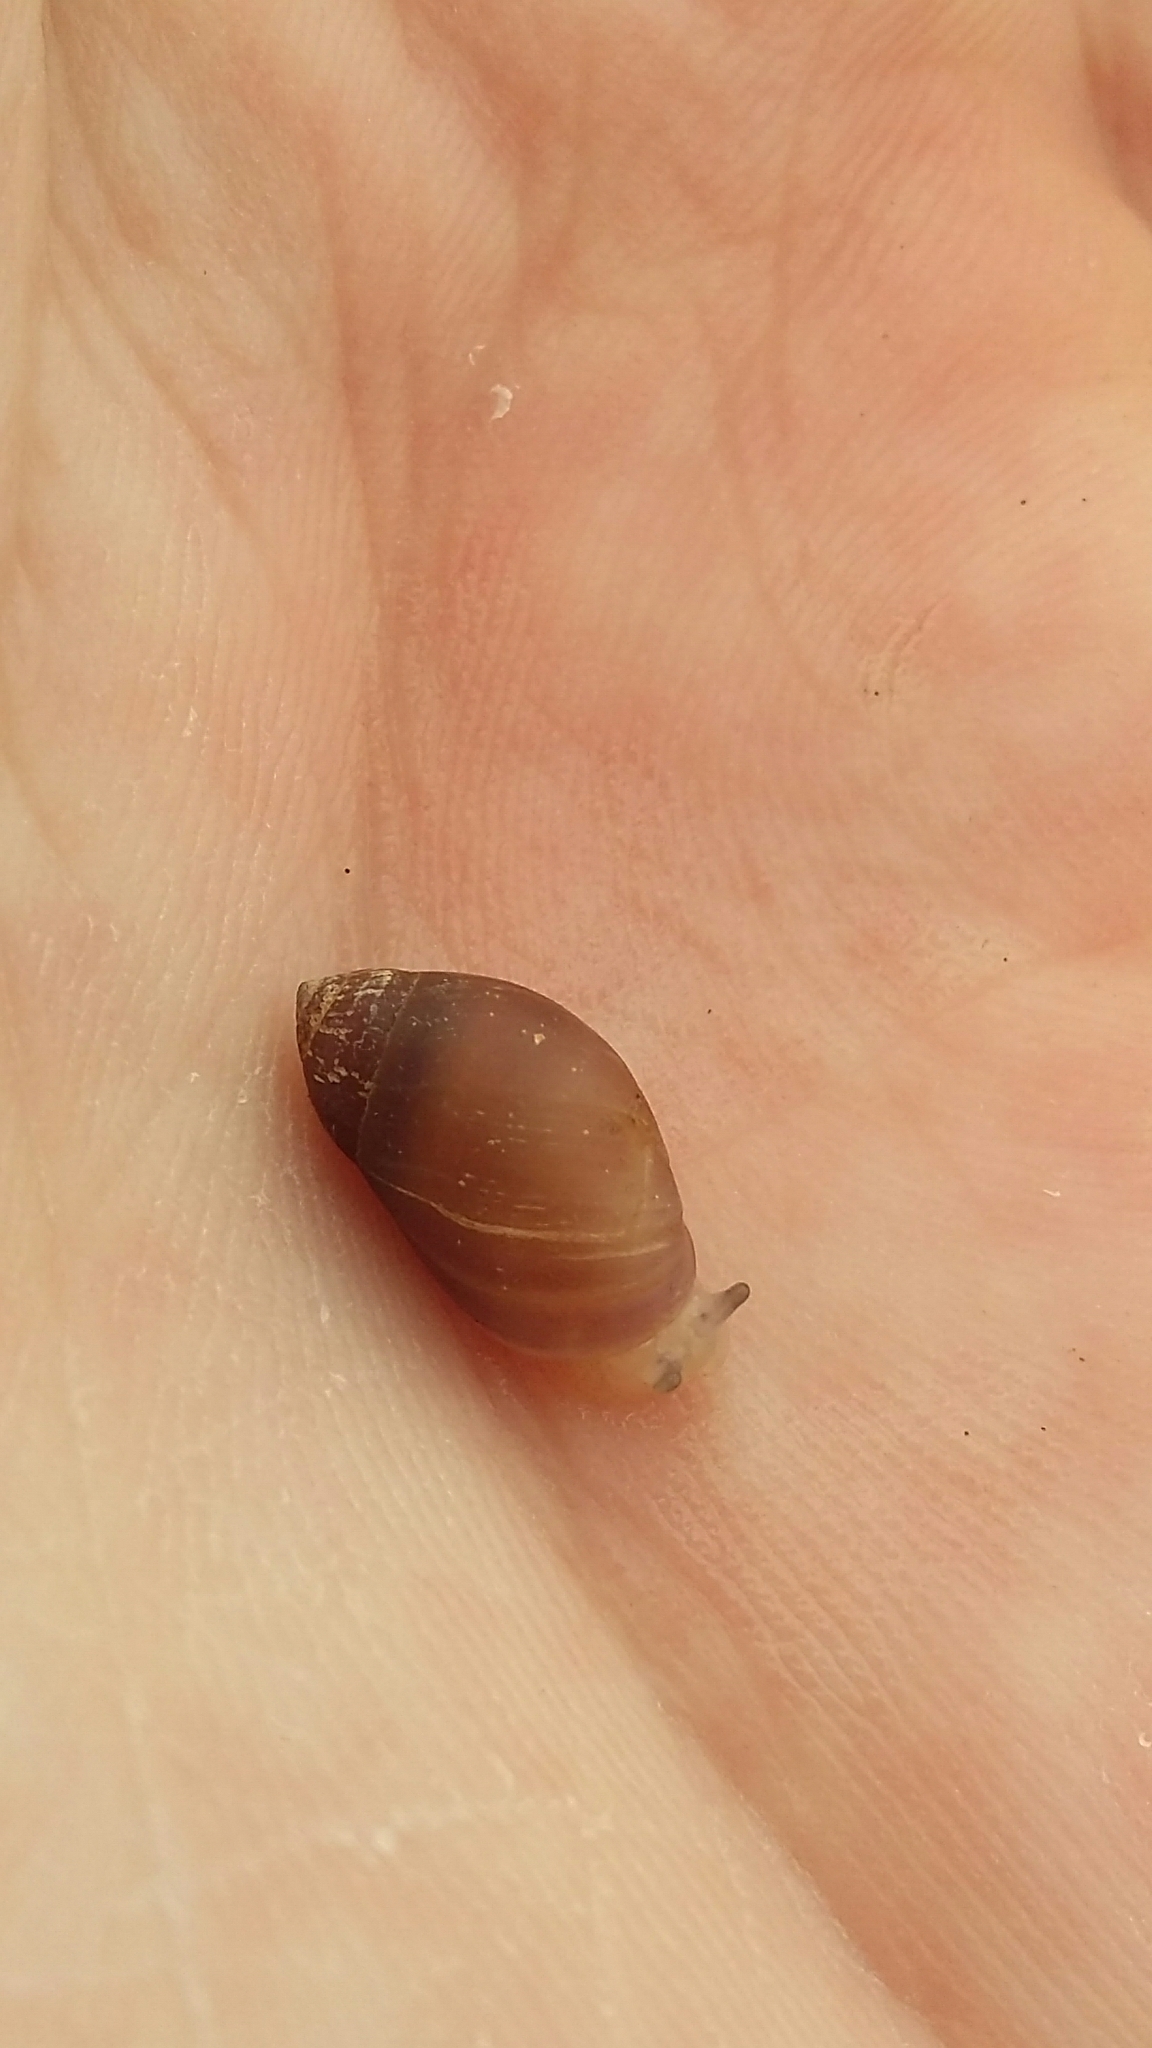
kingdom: Animalia
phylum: Mollusca
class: Gastropoda
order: Ellobiida
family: Ellobiidae
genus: Marinula
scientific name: Marinula filholi
